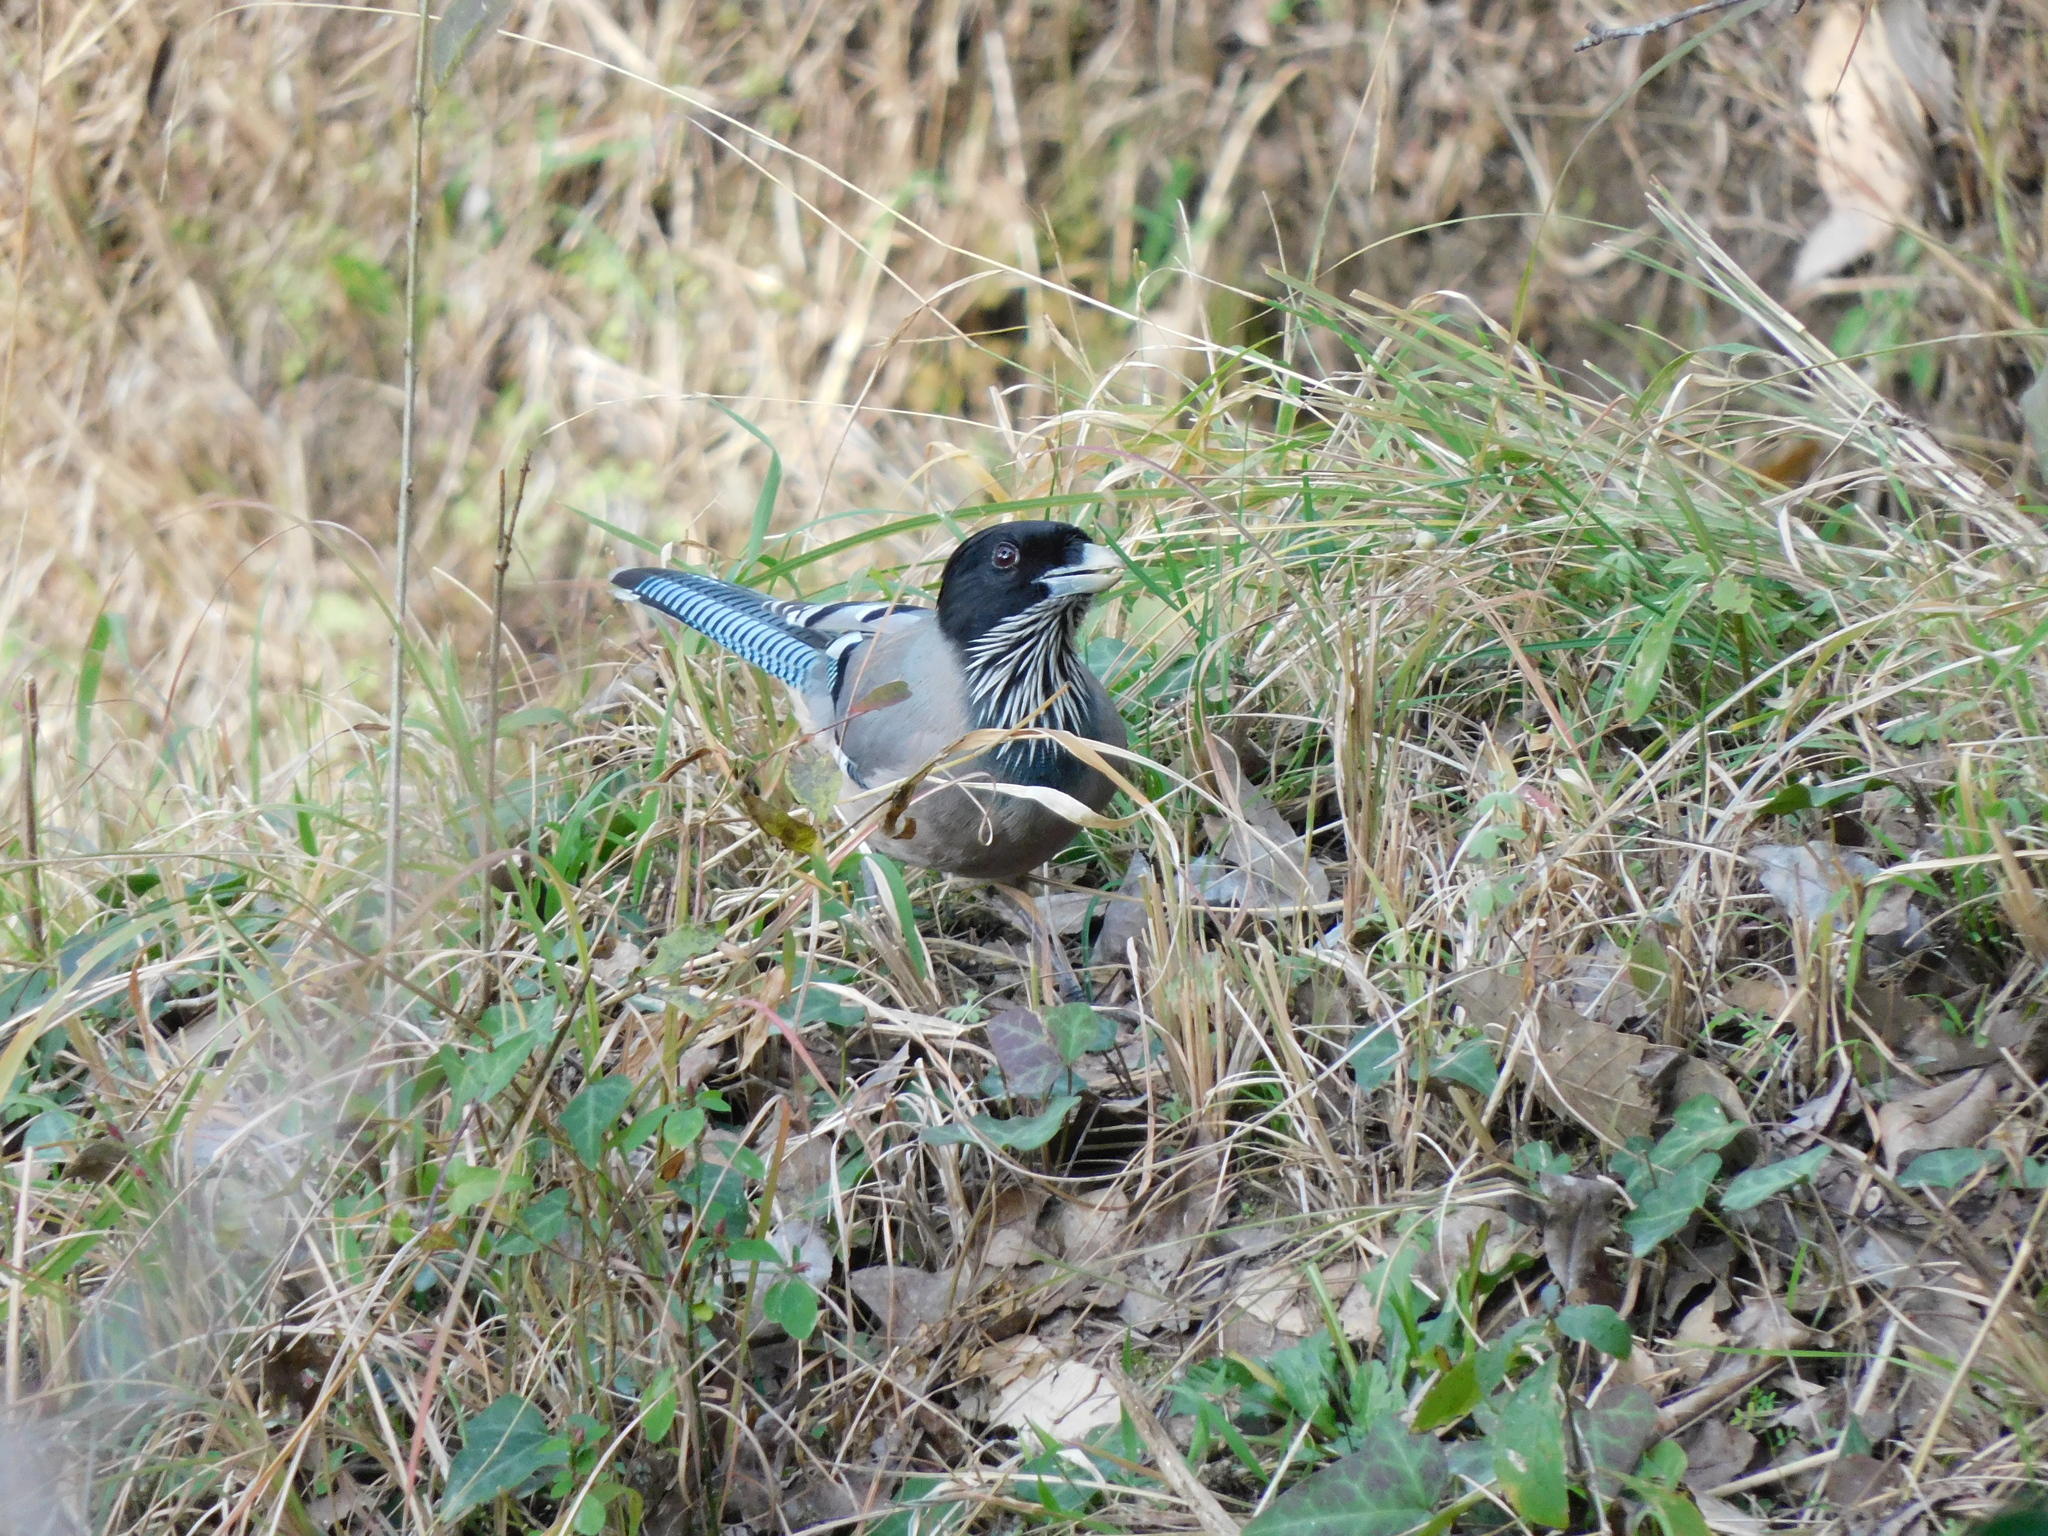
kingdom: Animalia
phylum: Chordata
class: Aves
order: Passeriformes
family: Corvidae
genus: Garrulus
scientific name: Garrulus lanceolatus
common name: Black-headed jay
